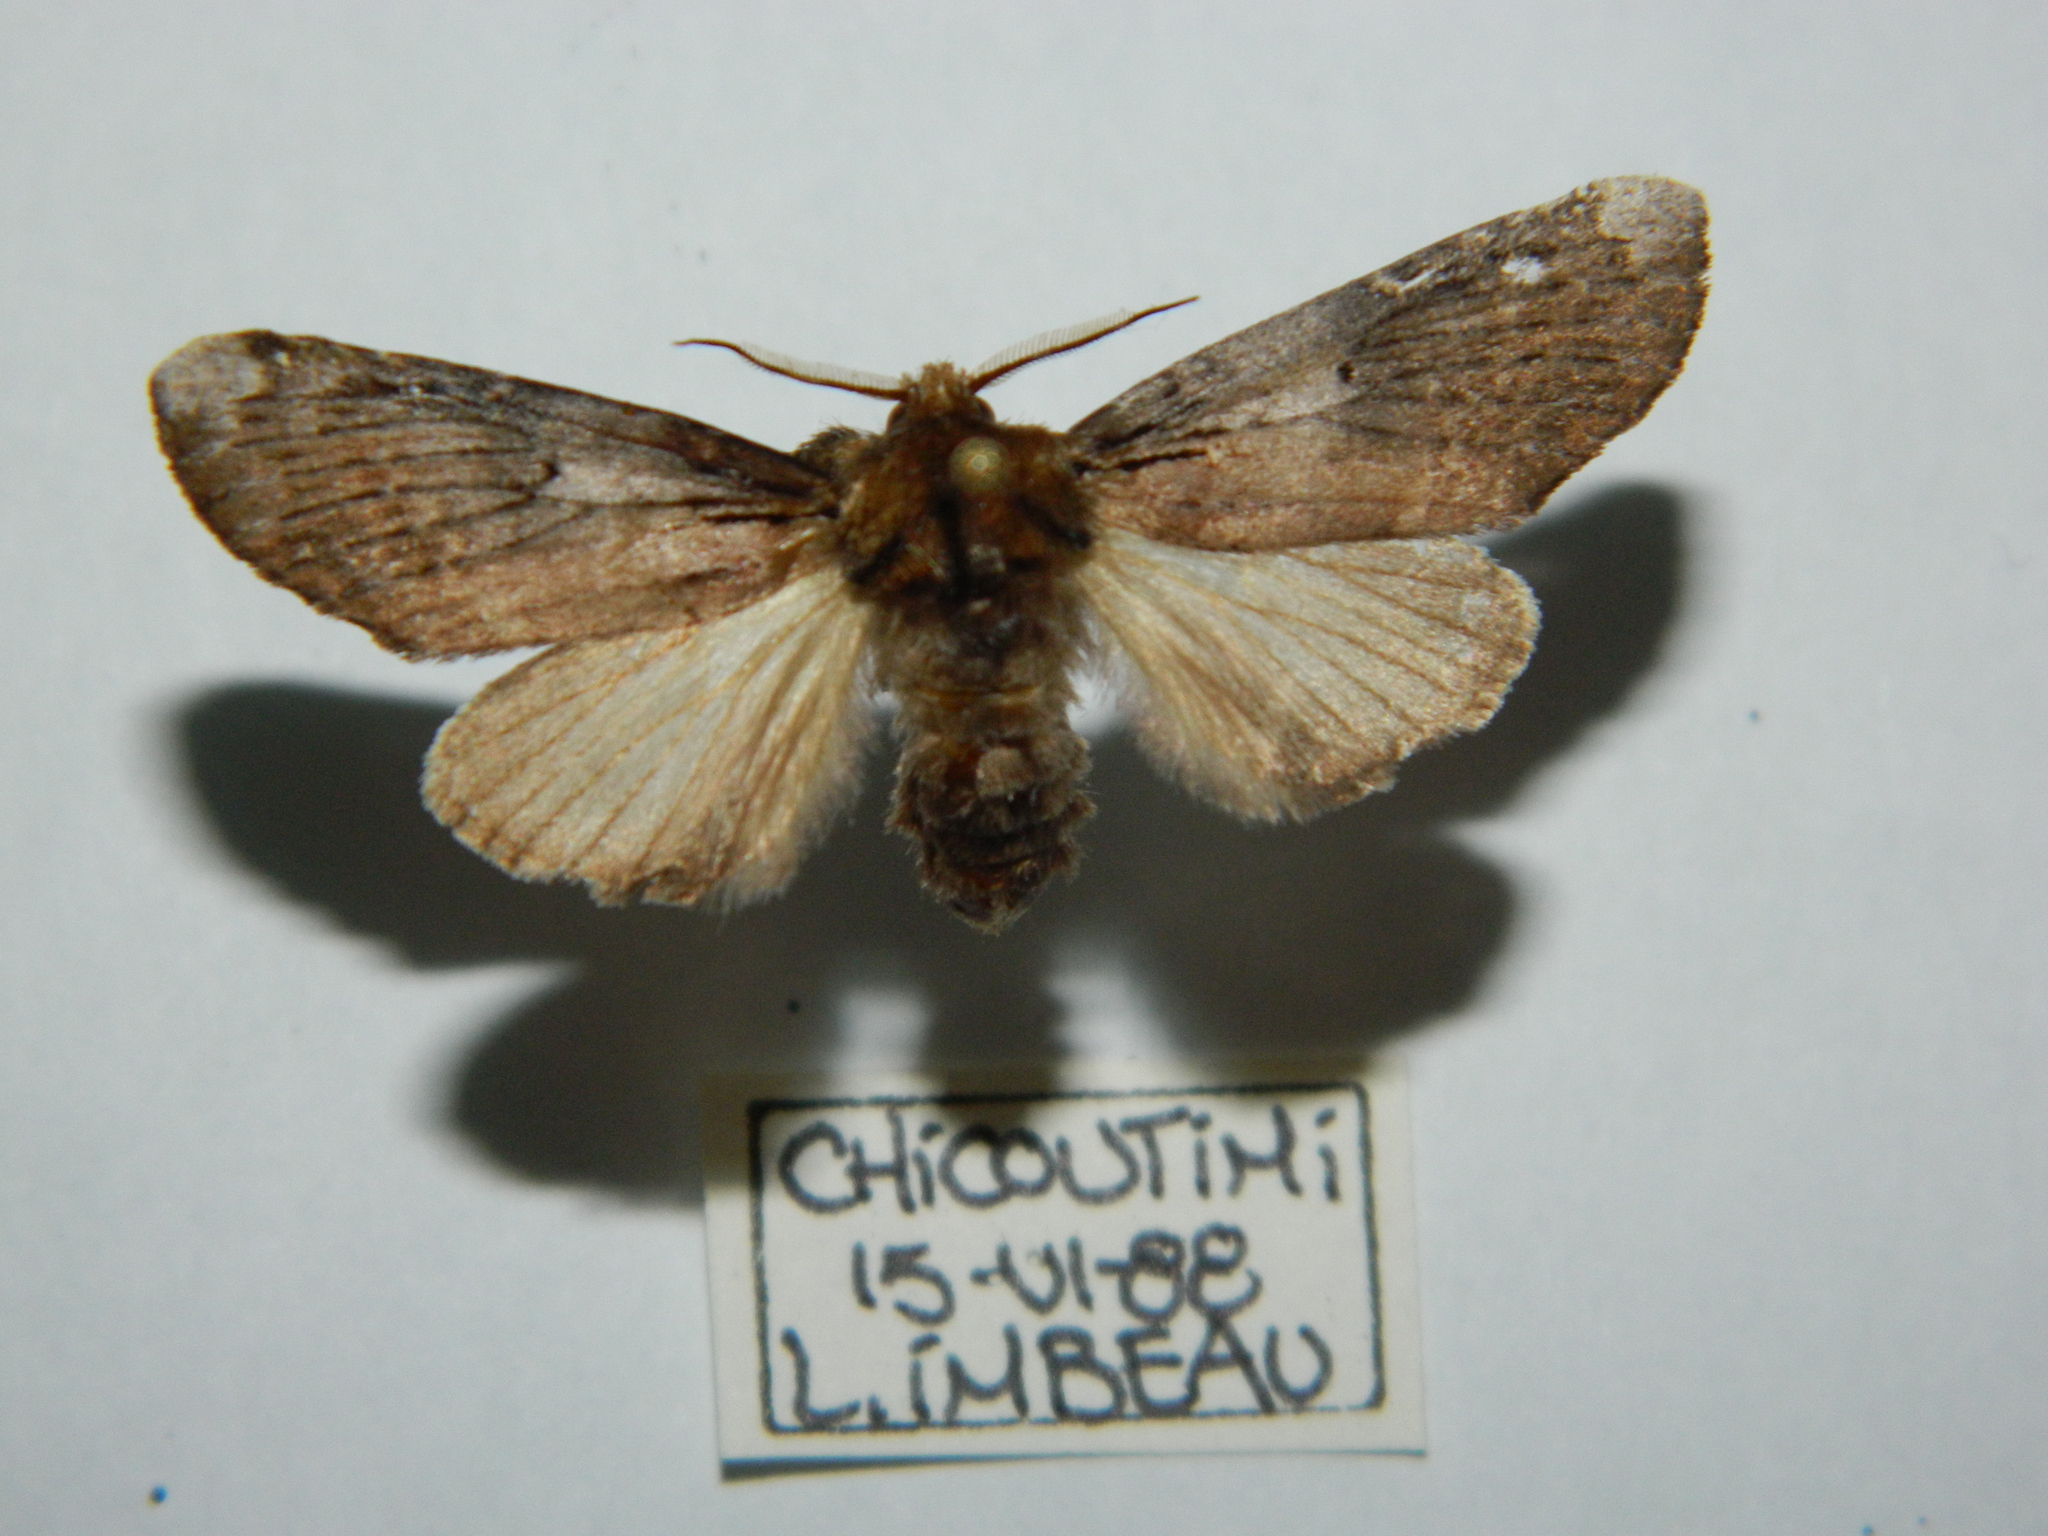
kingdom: Animalia
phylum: Arthropoda
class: Insecta
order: Lepidoptera
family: Notodontidae
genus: Schizura
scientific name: Schizura
